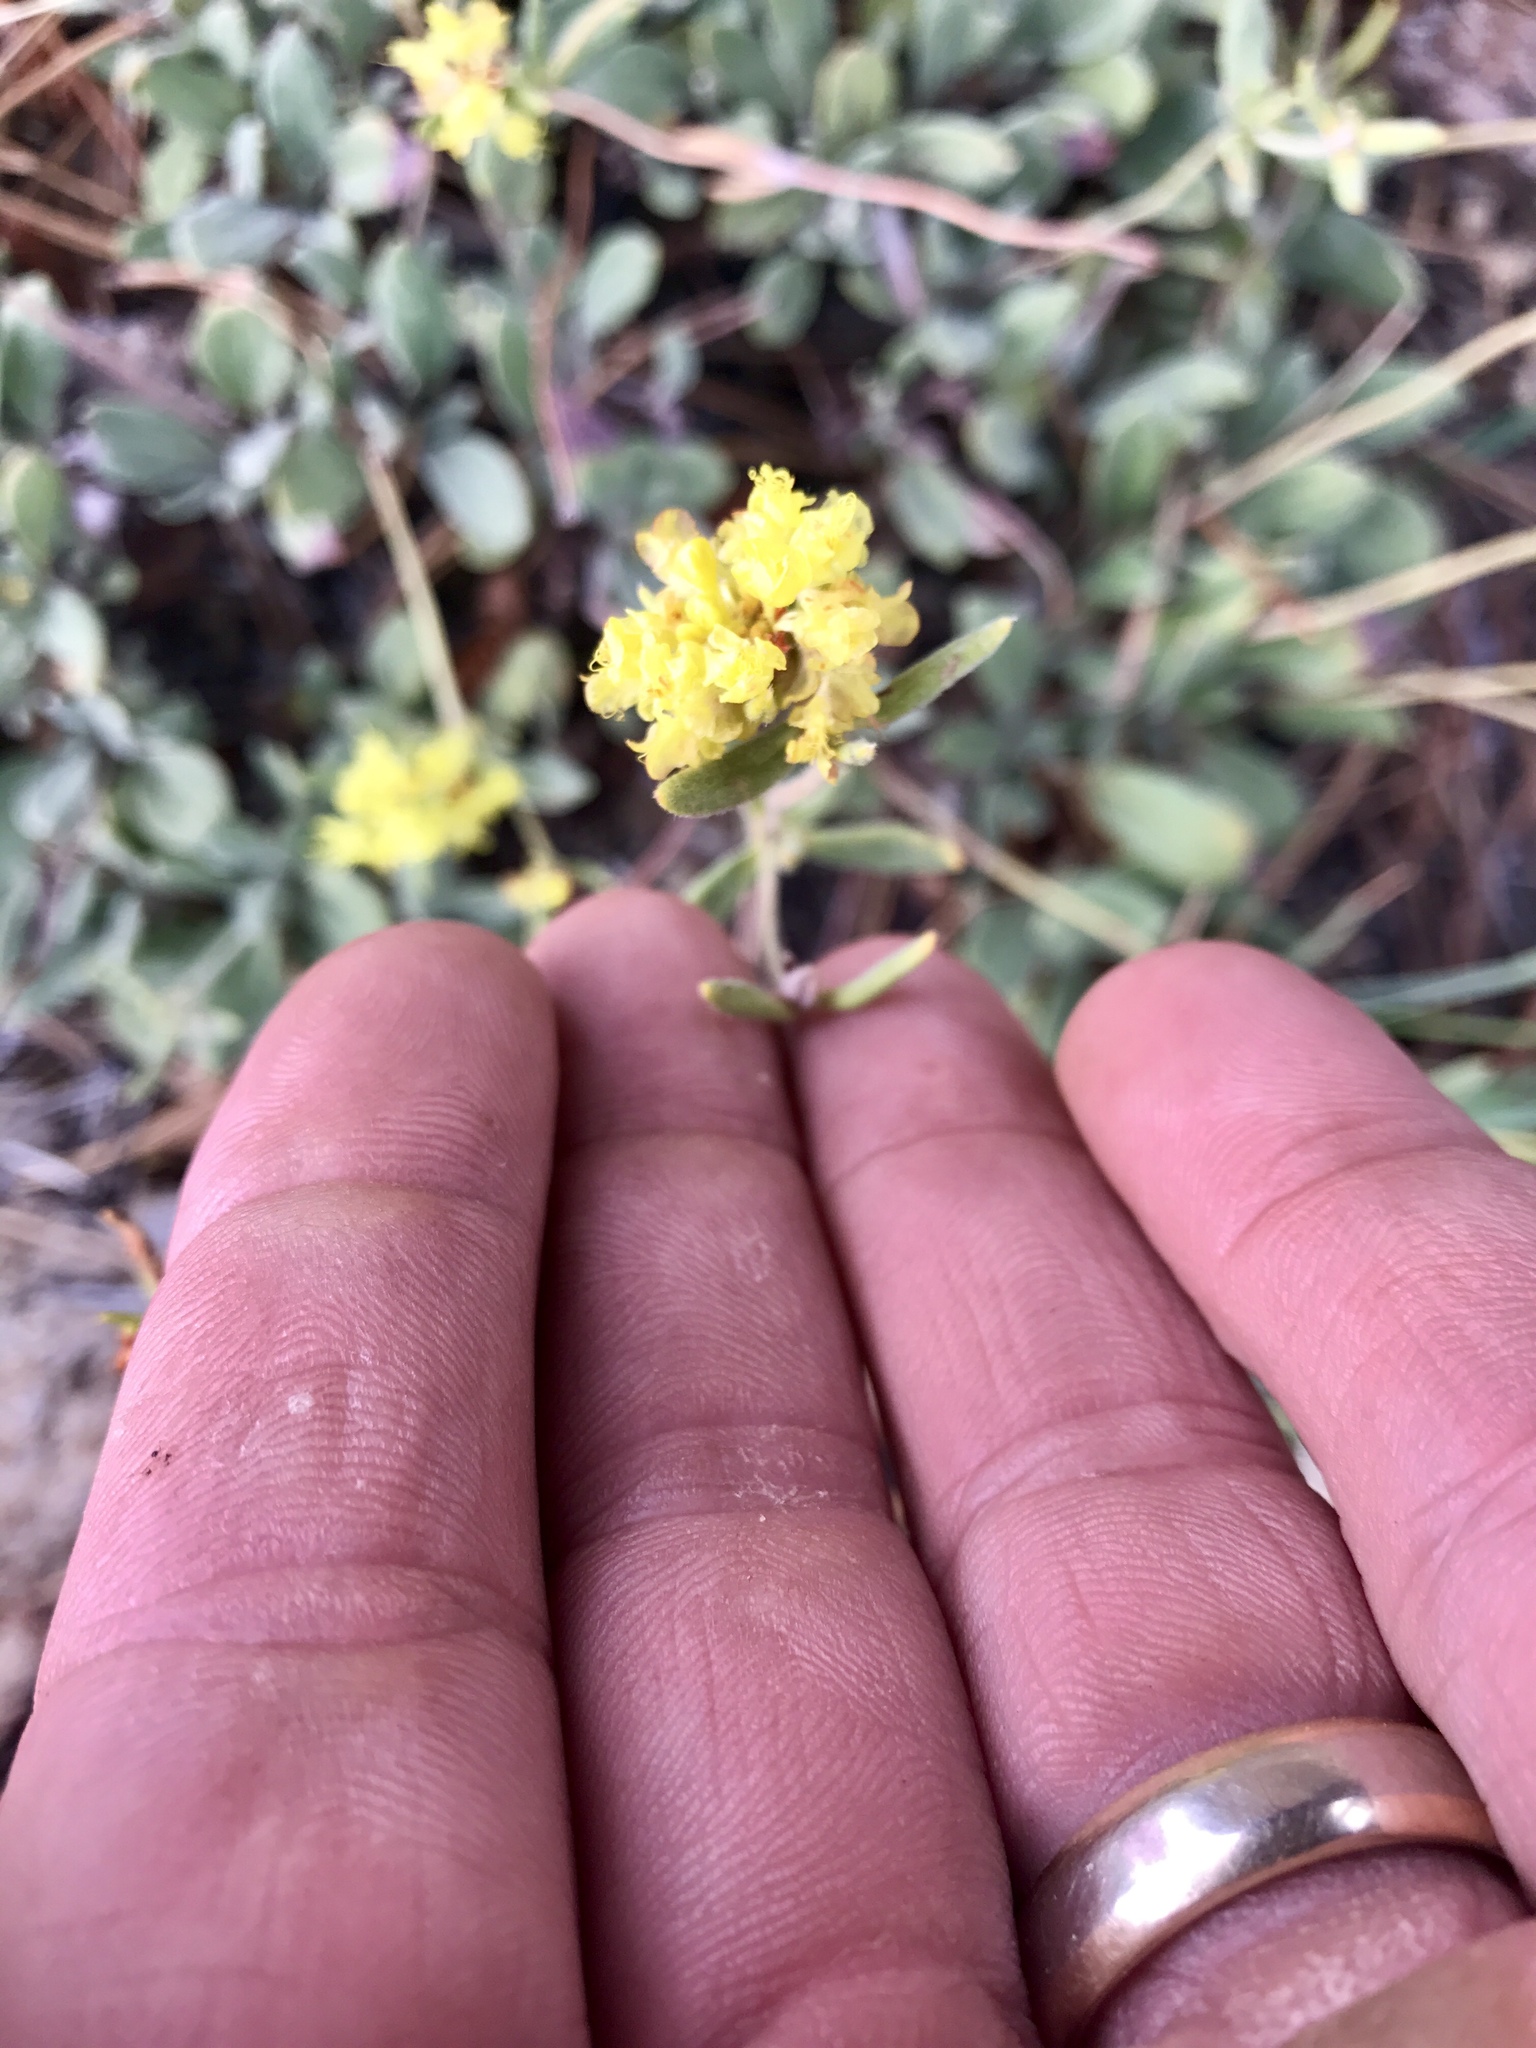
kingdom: Plantae
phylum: Tracheophyta
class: Magnoliopsida
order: Caryophyllales
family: Polygonaceae
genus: Eriogonum
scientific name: Eriogonum umbellatum
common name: Sulfur-buckwheat
